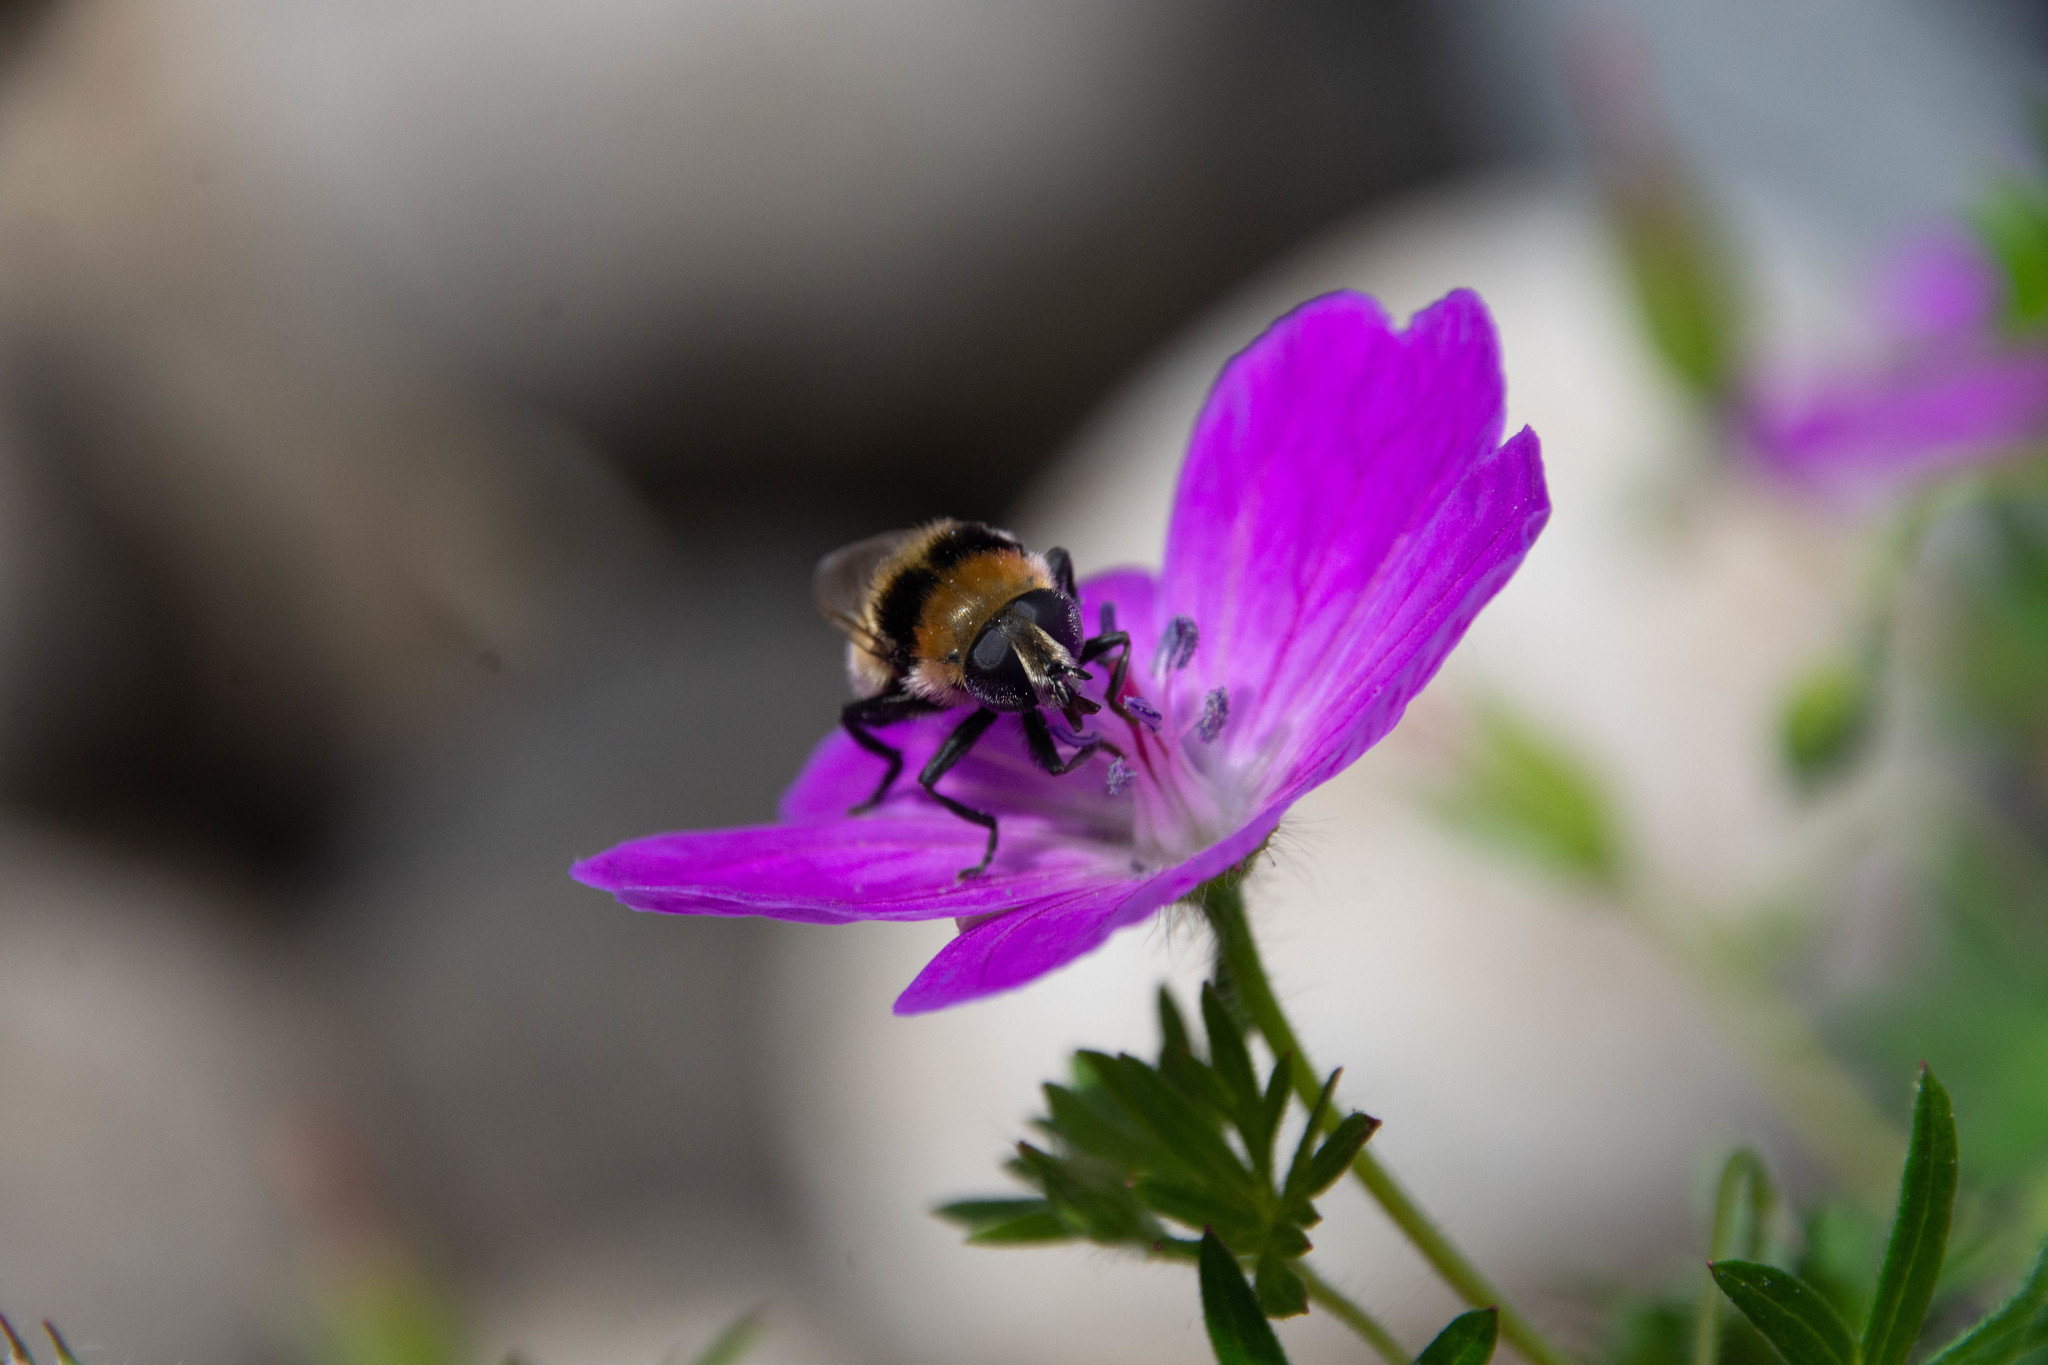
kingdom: Animalia
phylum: Arthropoda
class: Insecta
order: Diptera
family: Syrphidae
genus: Merodon
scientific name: Merodon equestris
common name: Greater bulb-fly
